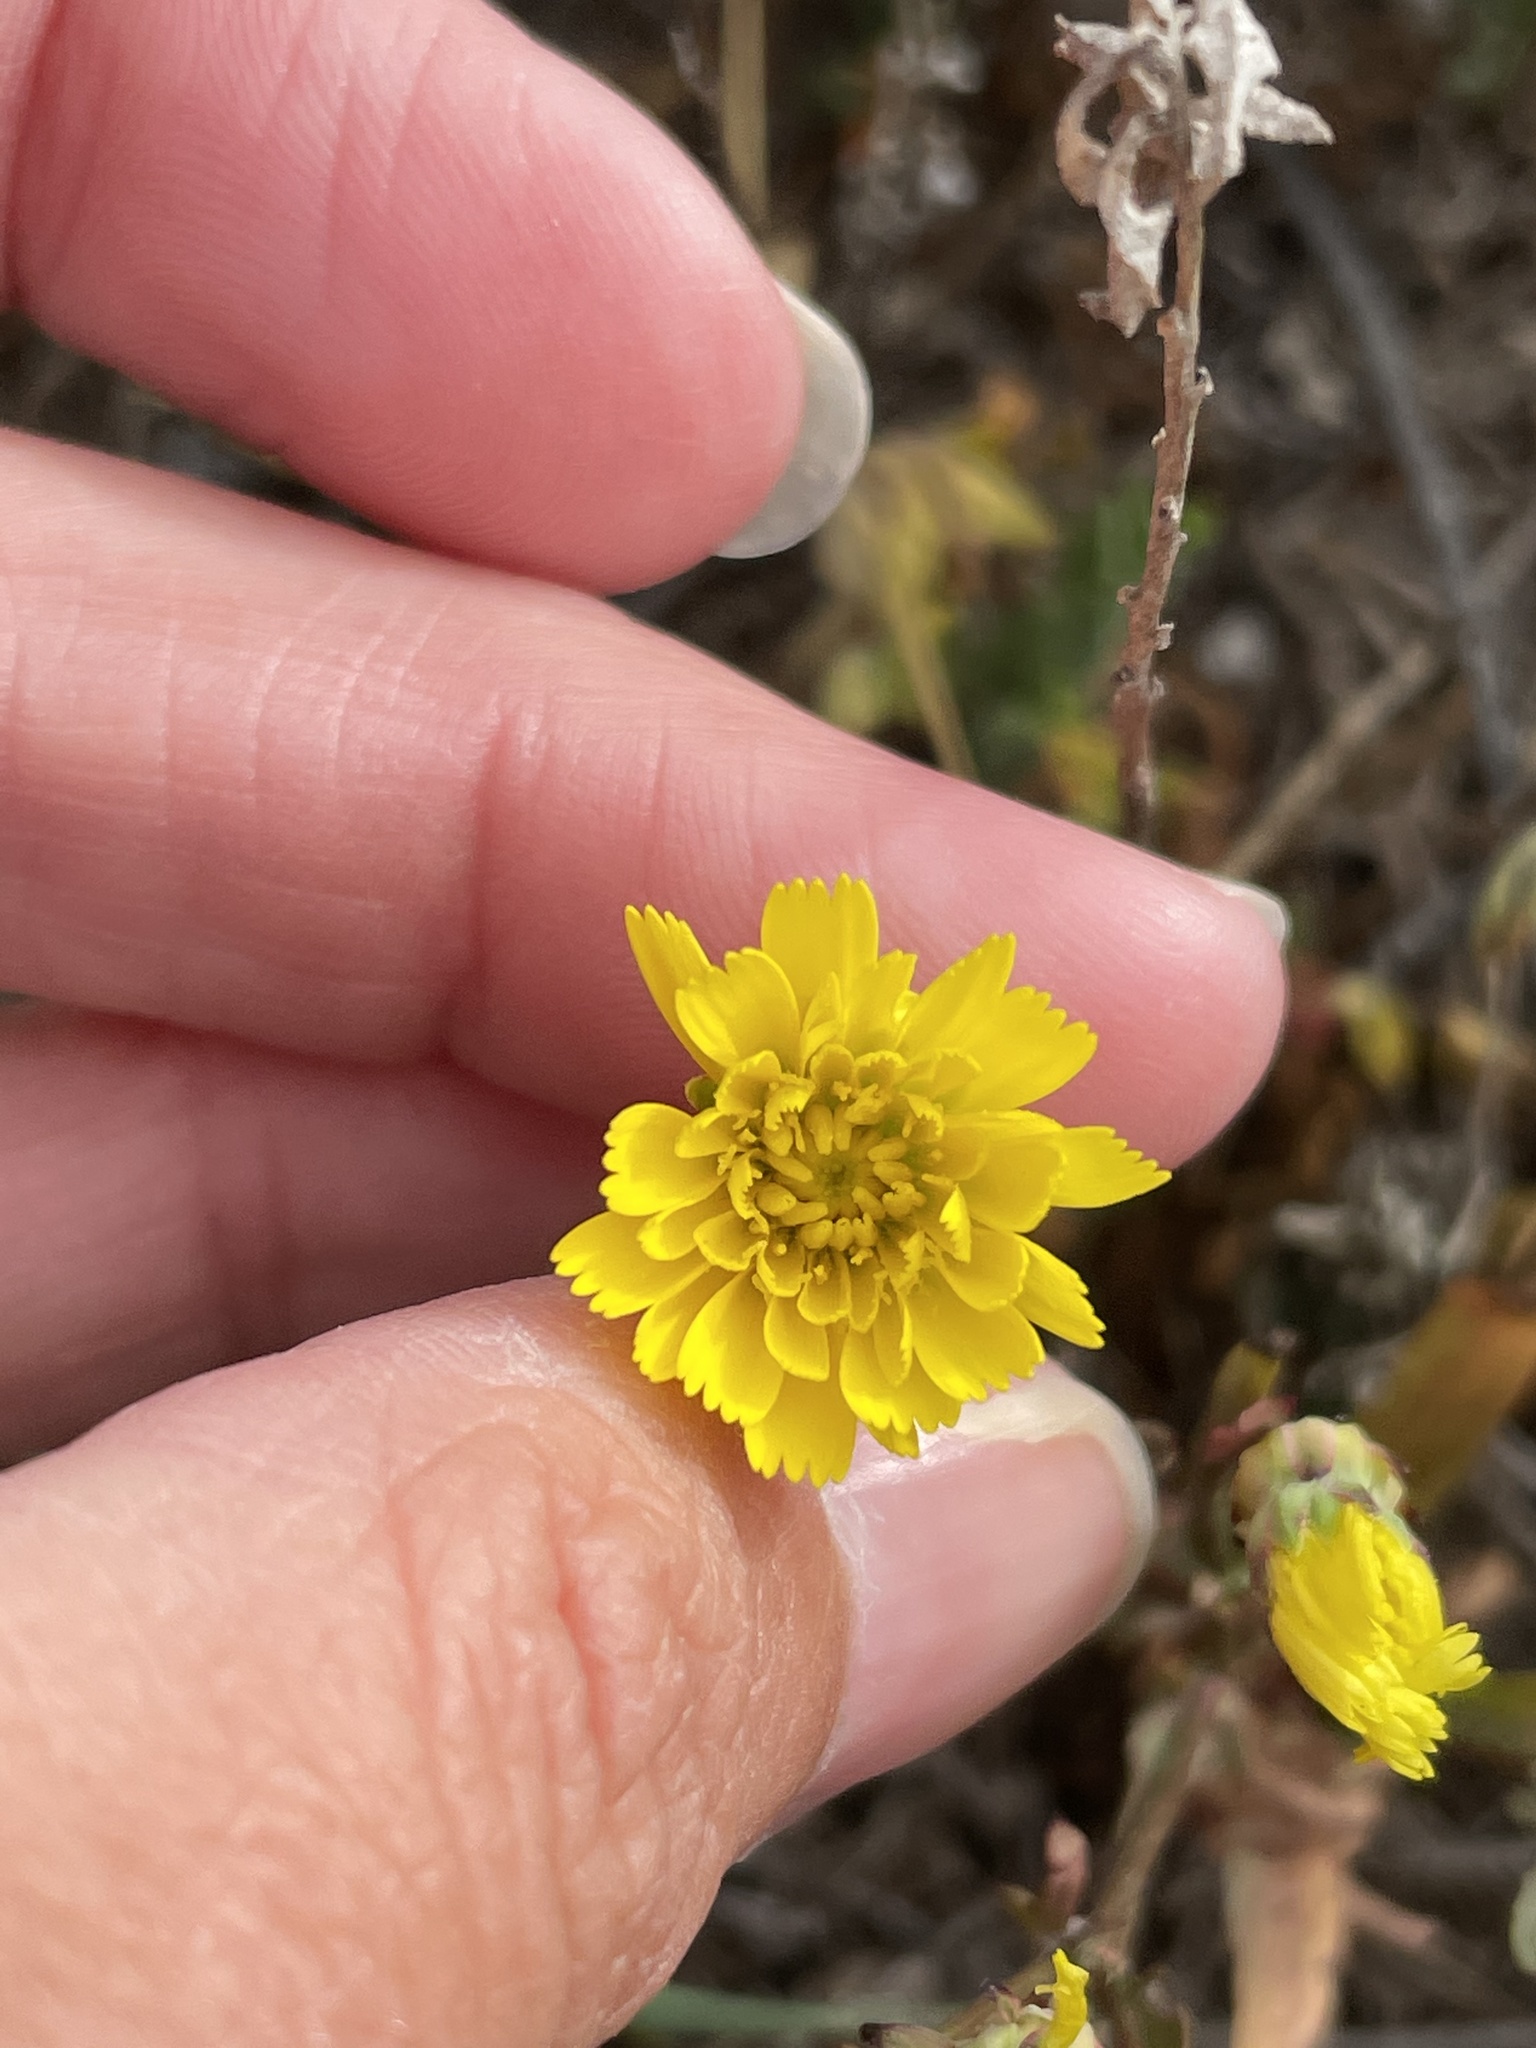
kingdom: Plantae
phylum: Tracheophyta
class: Magnoliopsida
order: Asterales
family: Asteraceae
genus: Malacothrix
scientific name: Malacothrix foliosa
